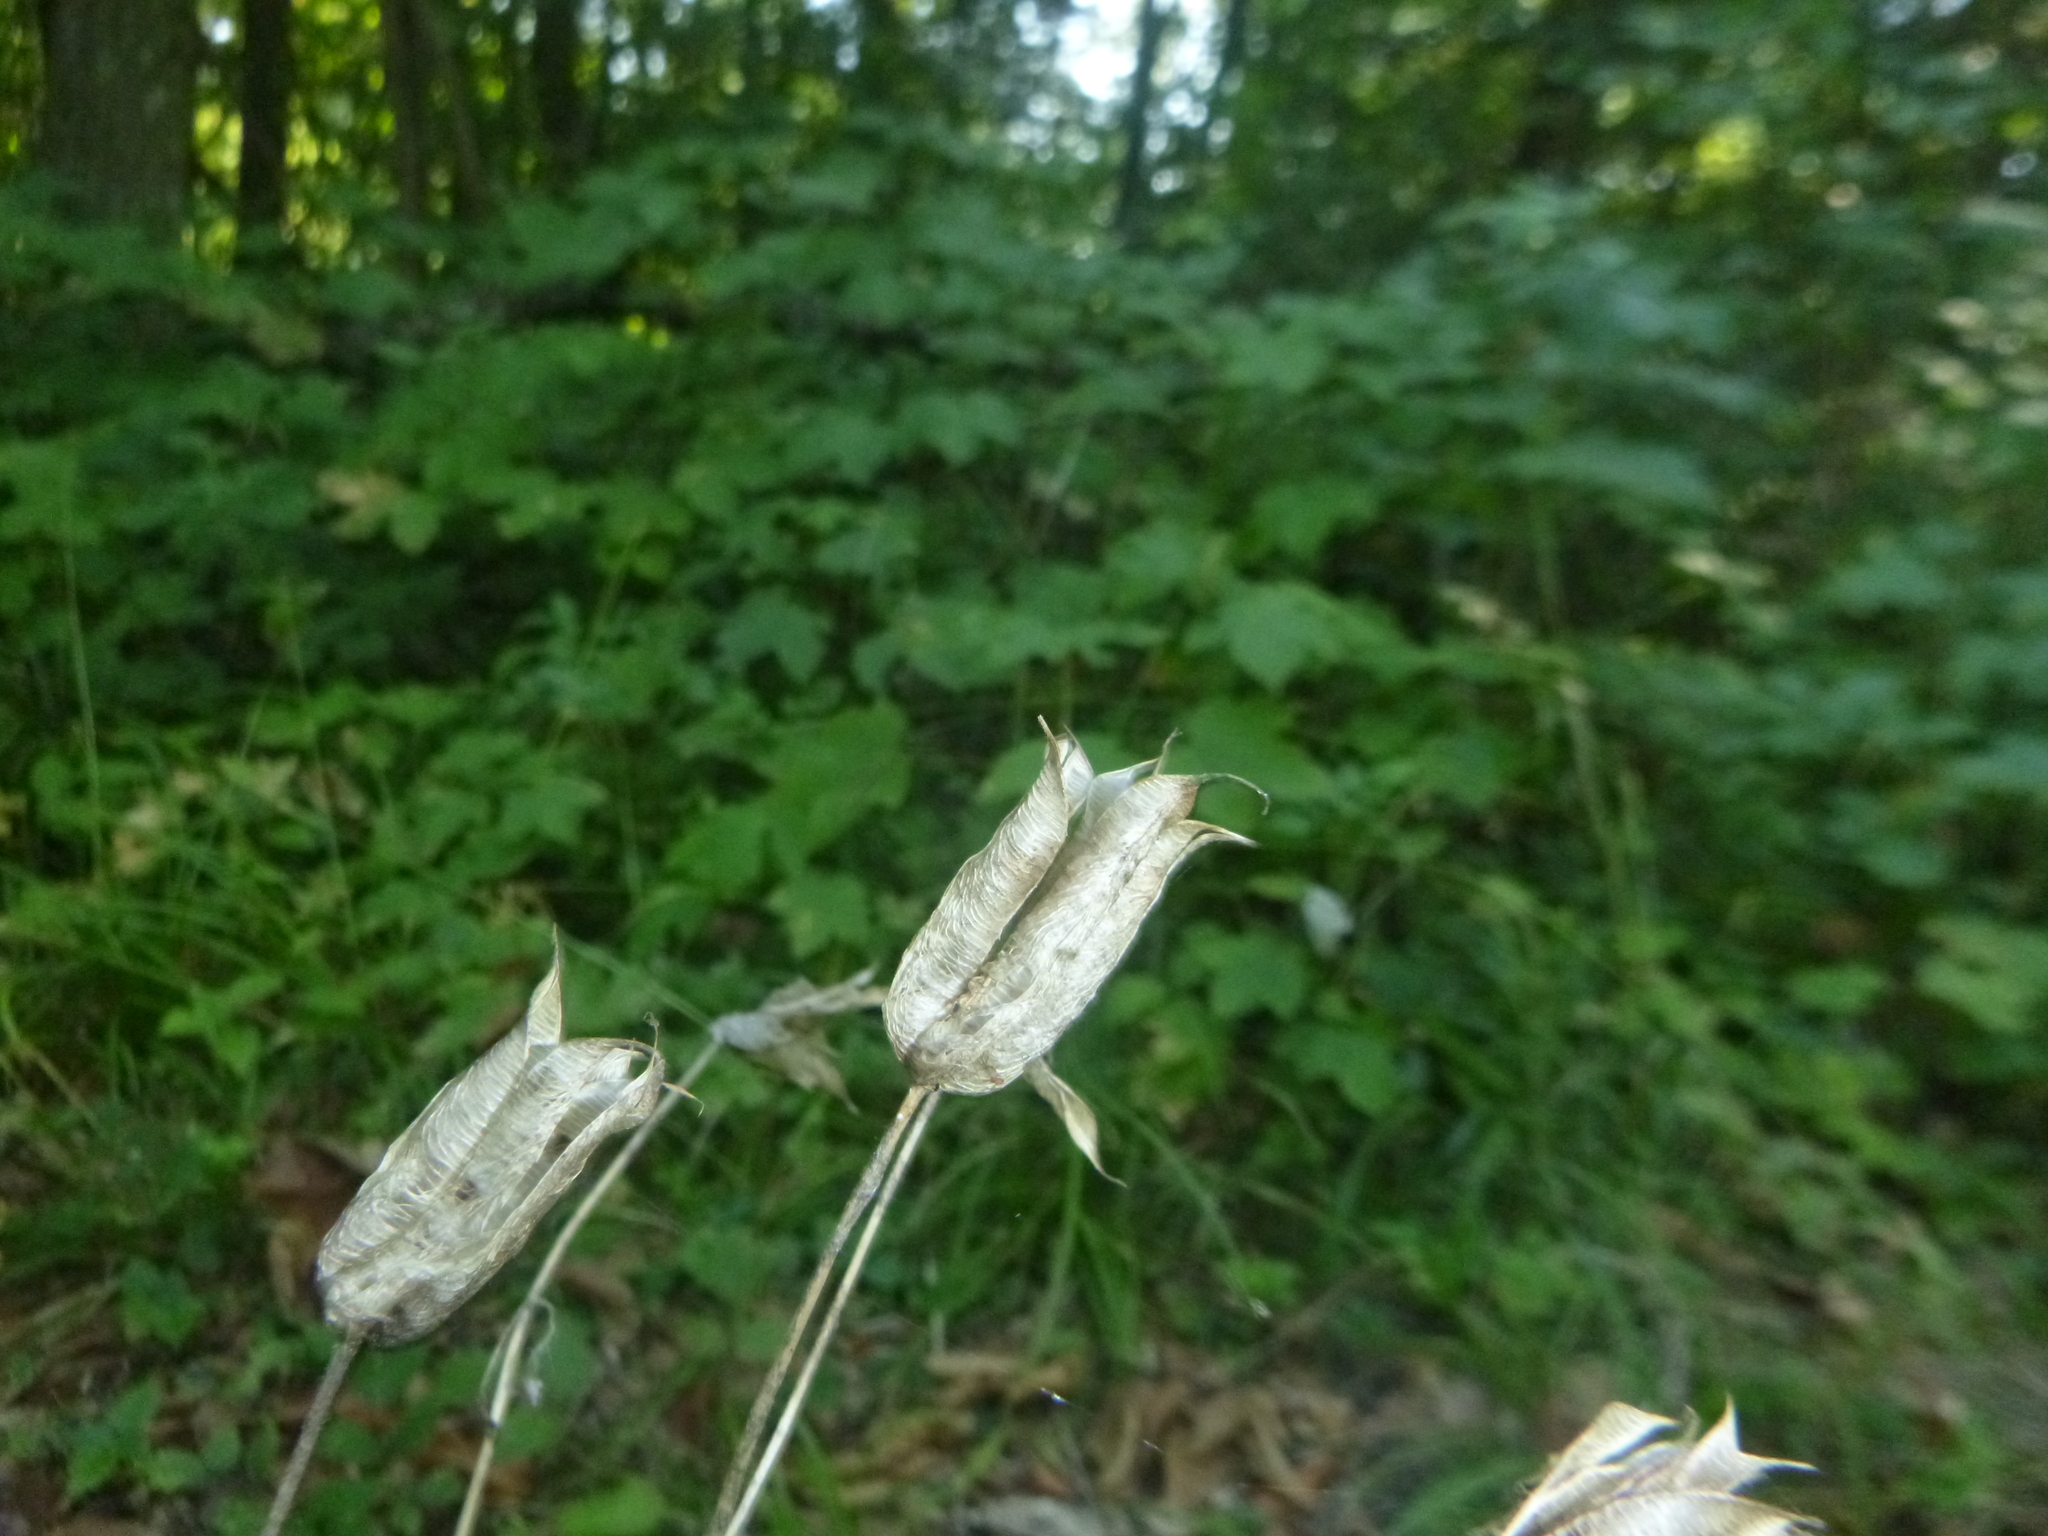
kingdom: Plantae
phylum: Tracheophyta
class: Magnoliopsida
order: Ranunculales
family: Ranunculaceae
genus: Aquilegia
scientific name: Aquilegia vulgaris
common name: Columbine
